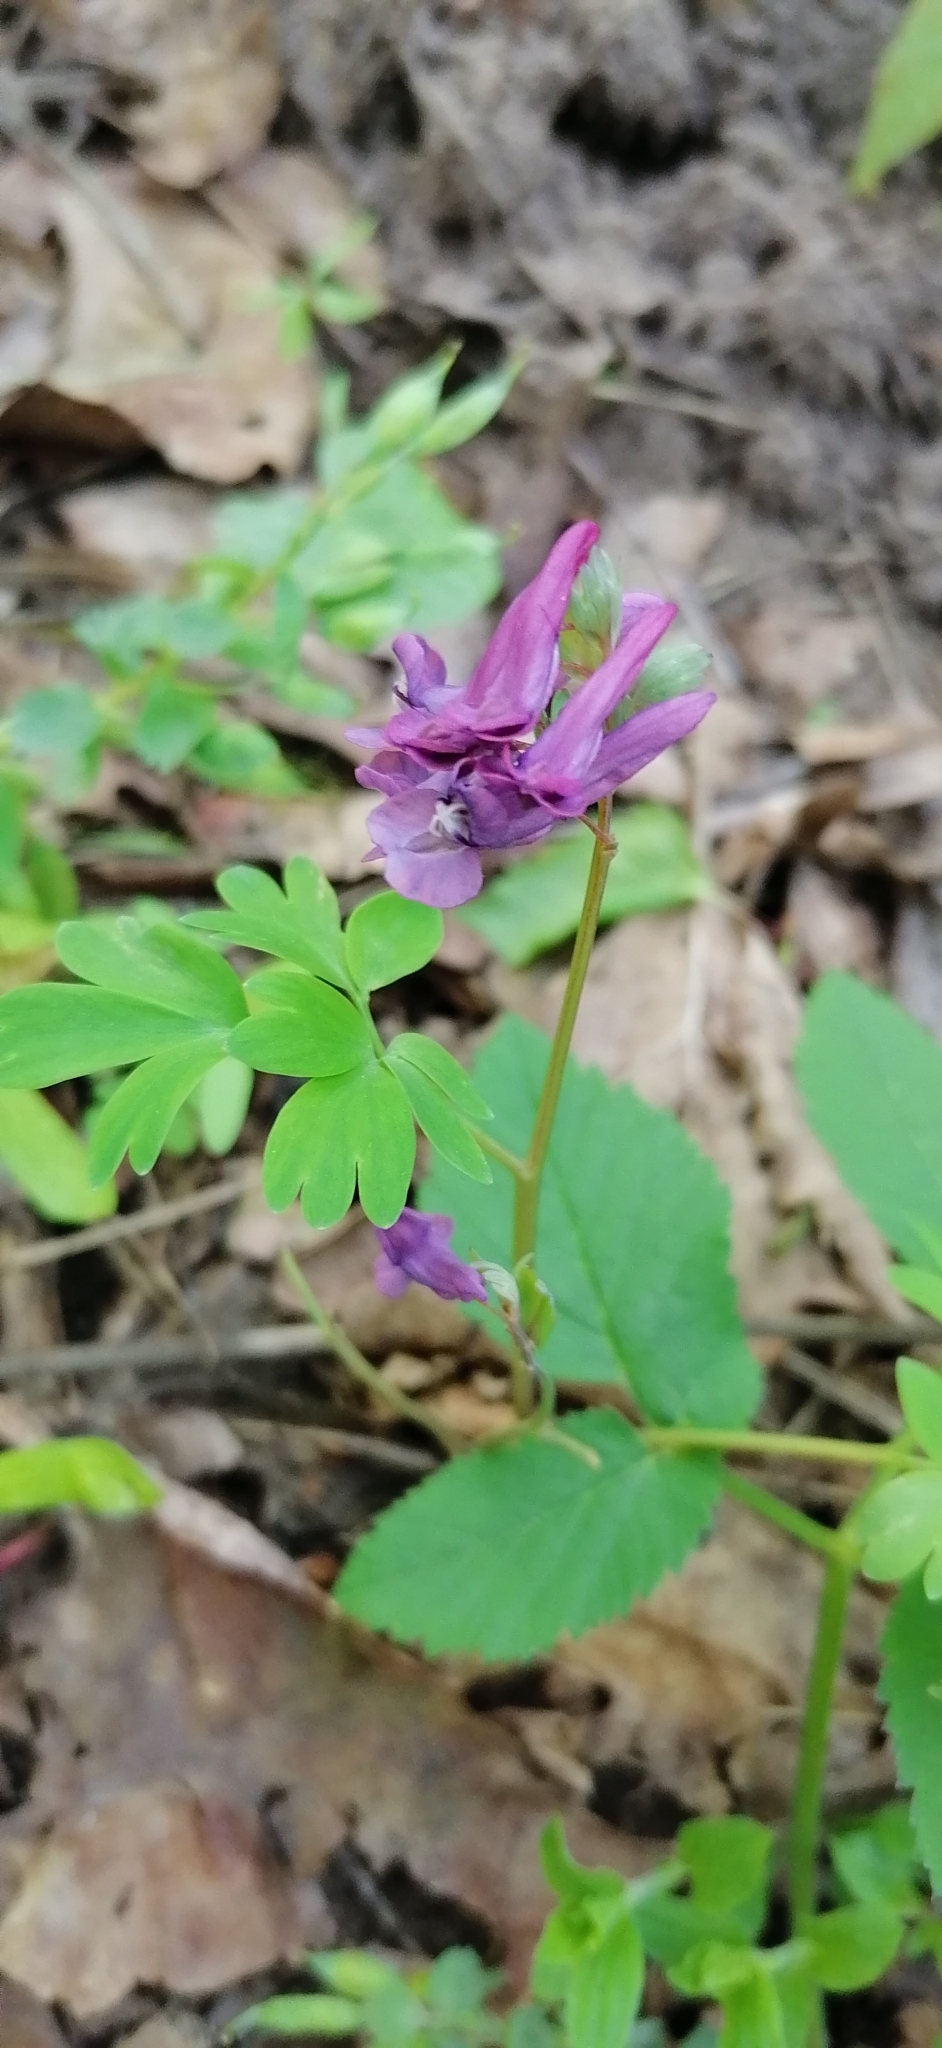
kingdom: Plantae
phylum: Tracheophyta
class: Magnoliopsida
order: Ranunculales
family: Papaveraceae
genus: Corydalis
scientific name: Corydalis solida
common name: Bird-in-a-bush
